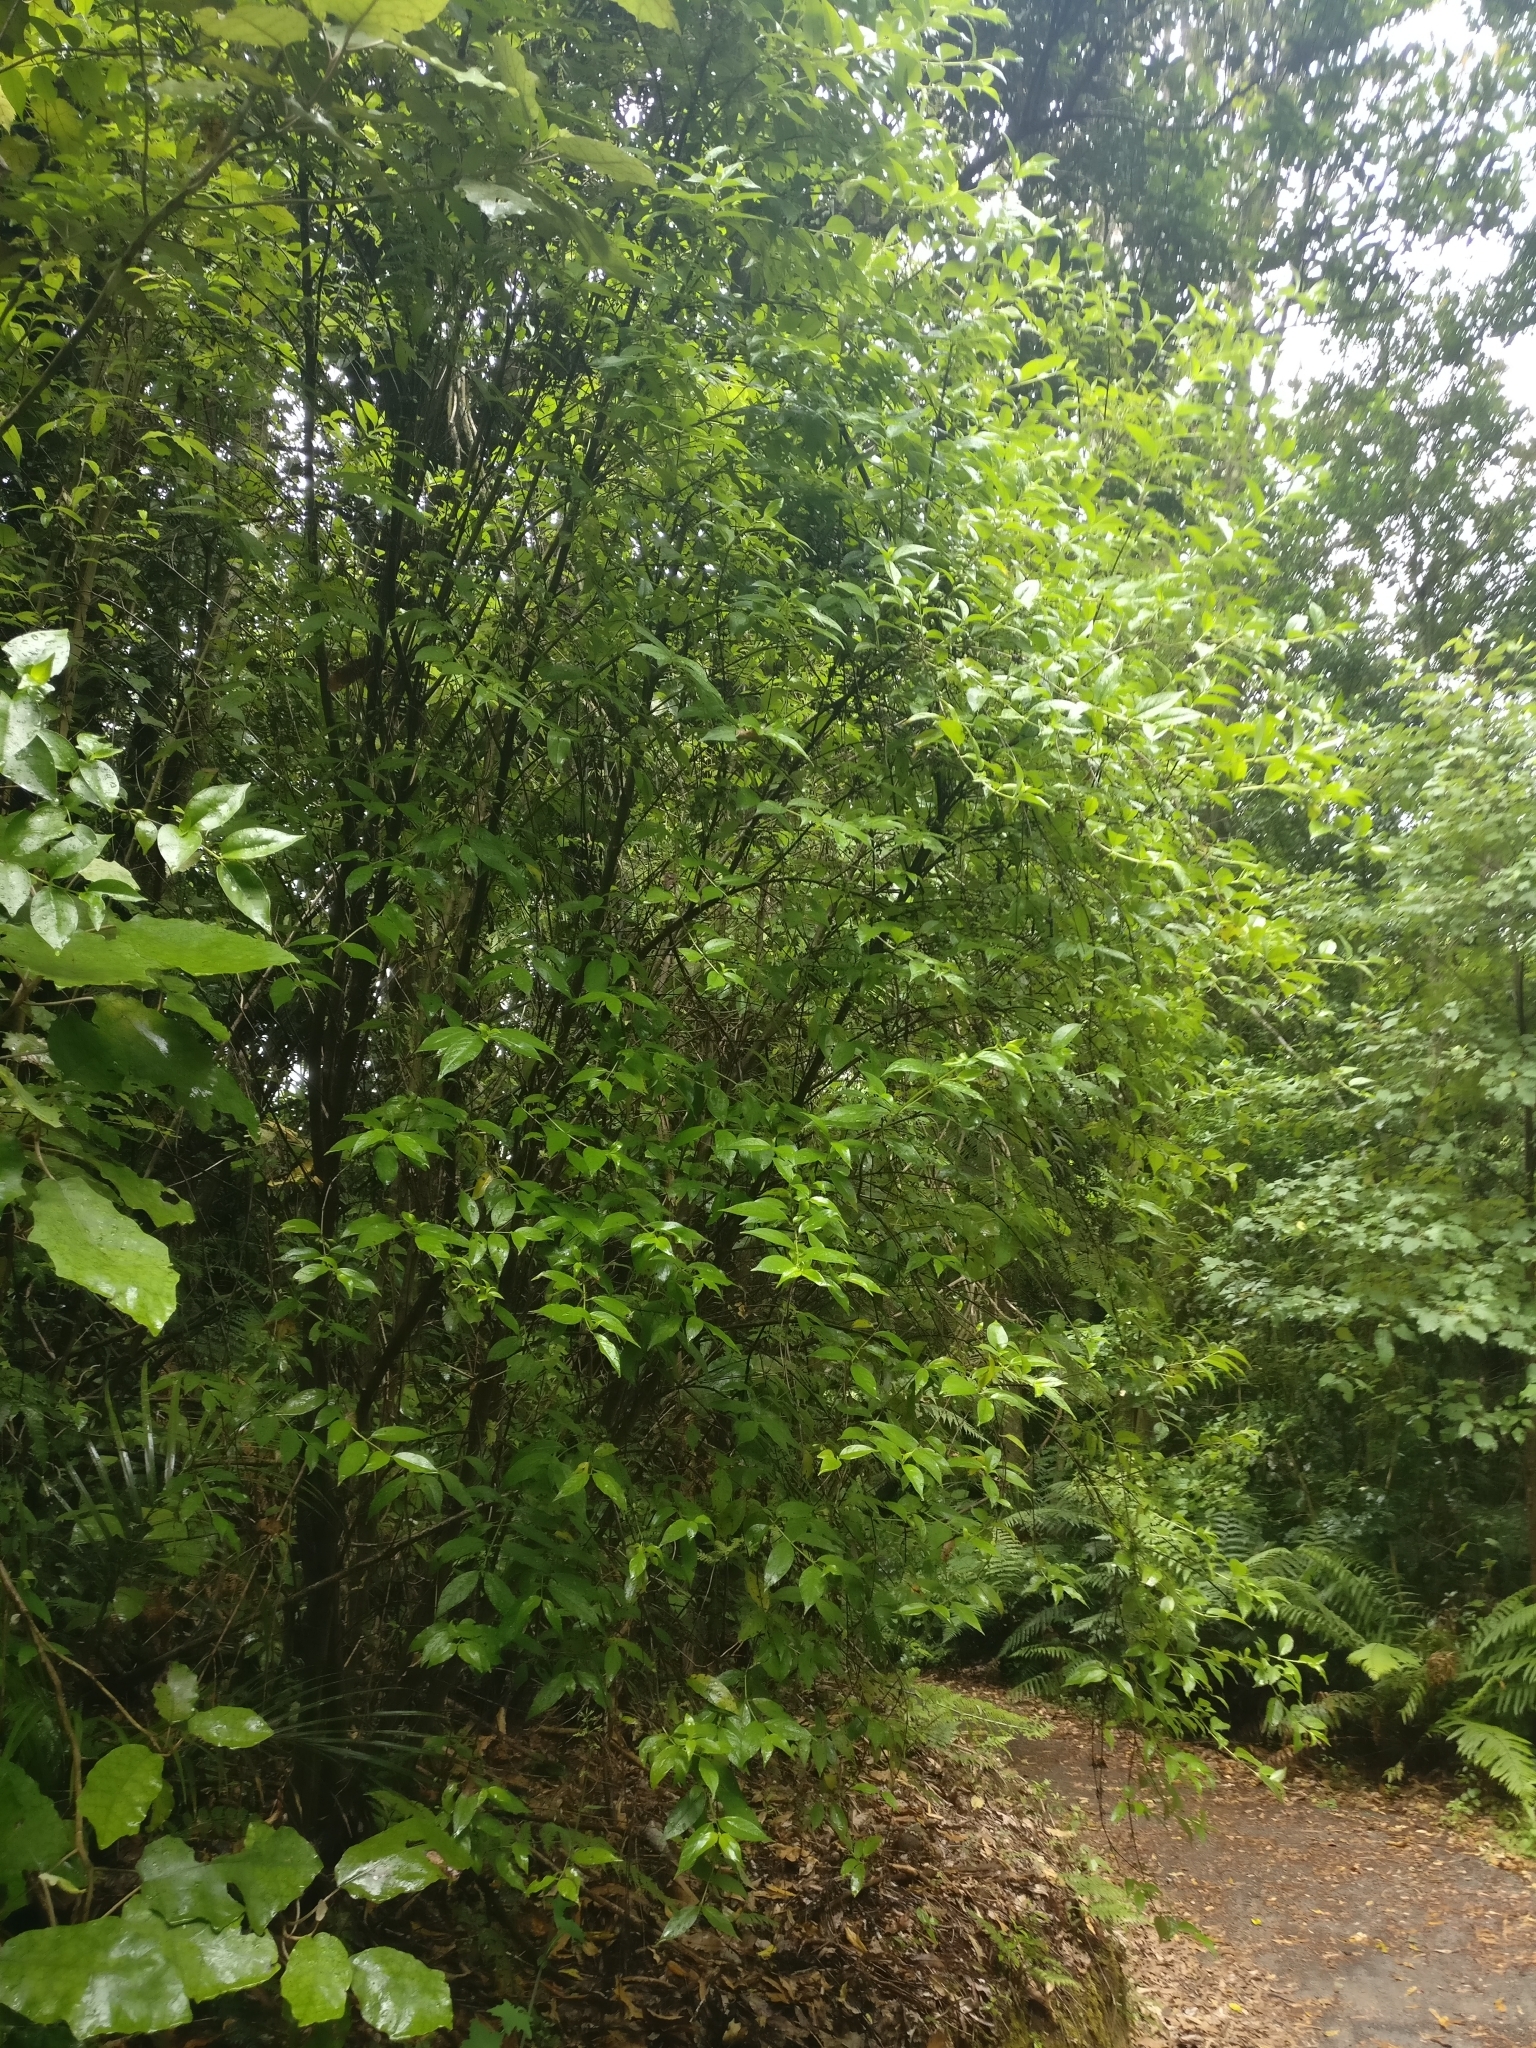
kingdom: Plantae
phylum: Tracheophyta
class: Magnoliopsida
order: Gentianales
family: Loganiaceae
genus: Geniostoma
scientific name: Geniostoma ligustrifolium
